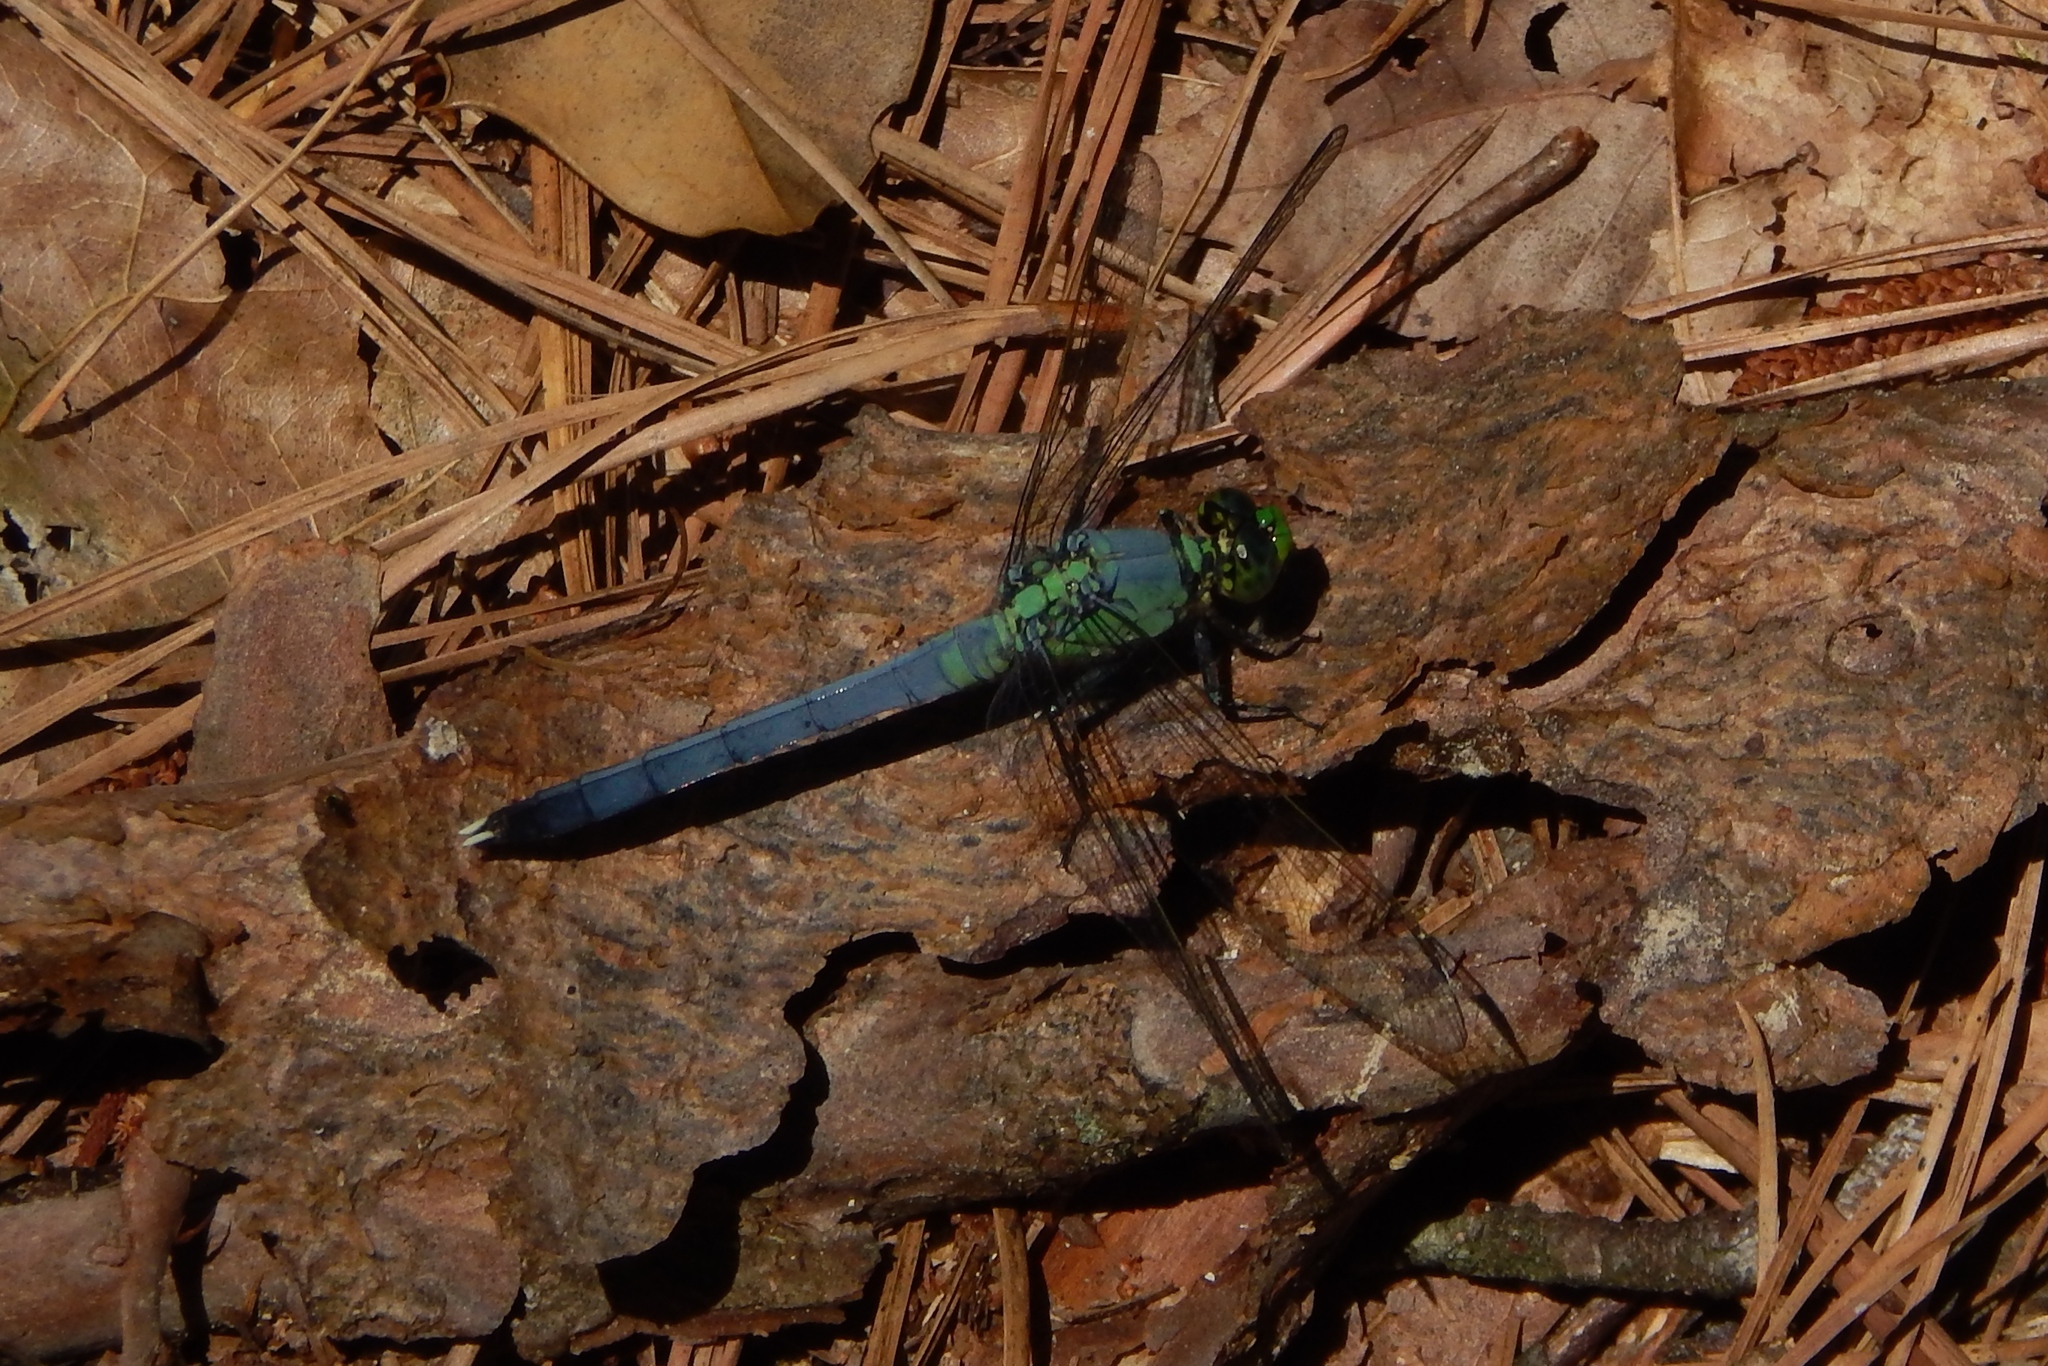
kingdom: Animalia
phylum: Arthropoda
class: Insecta
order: Odonata
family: Libellulidae
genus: Erythemis
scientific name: Erythemis simplicicollis
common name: Eastern pondhawk
